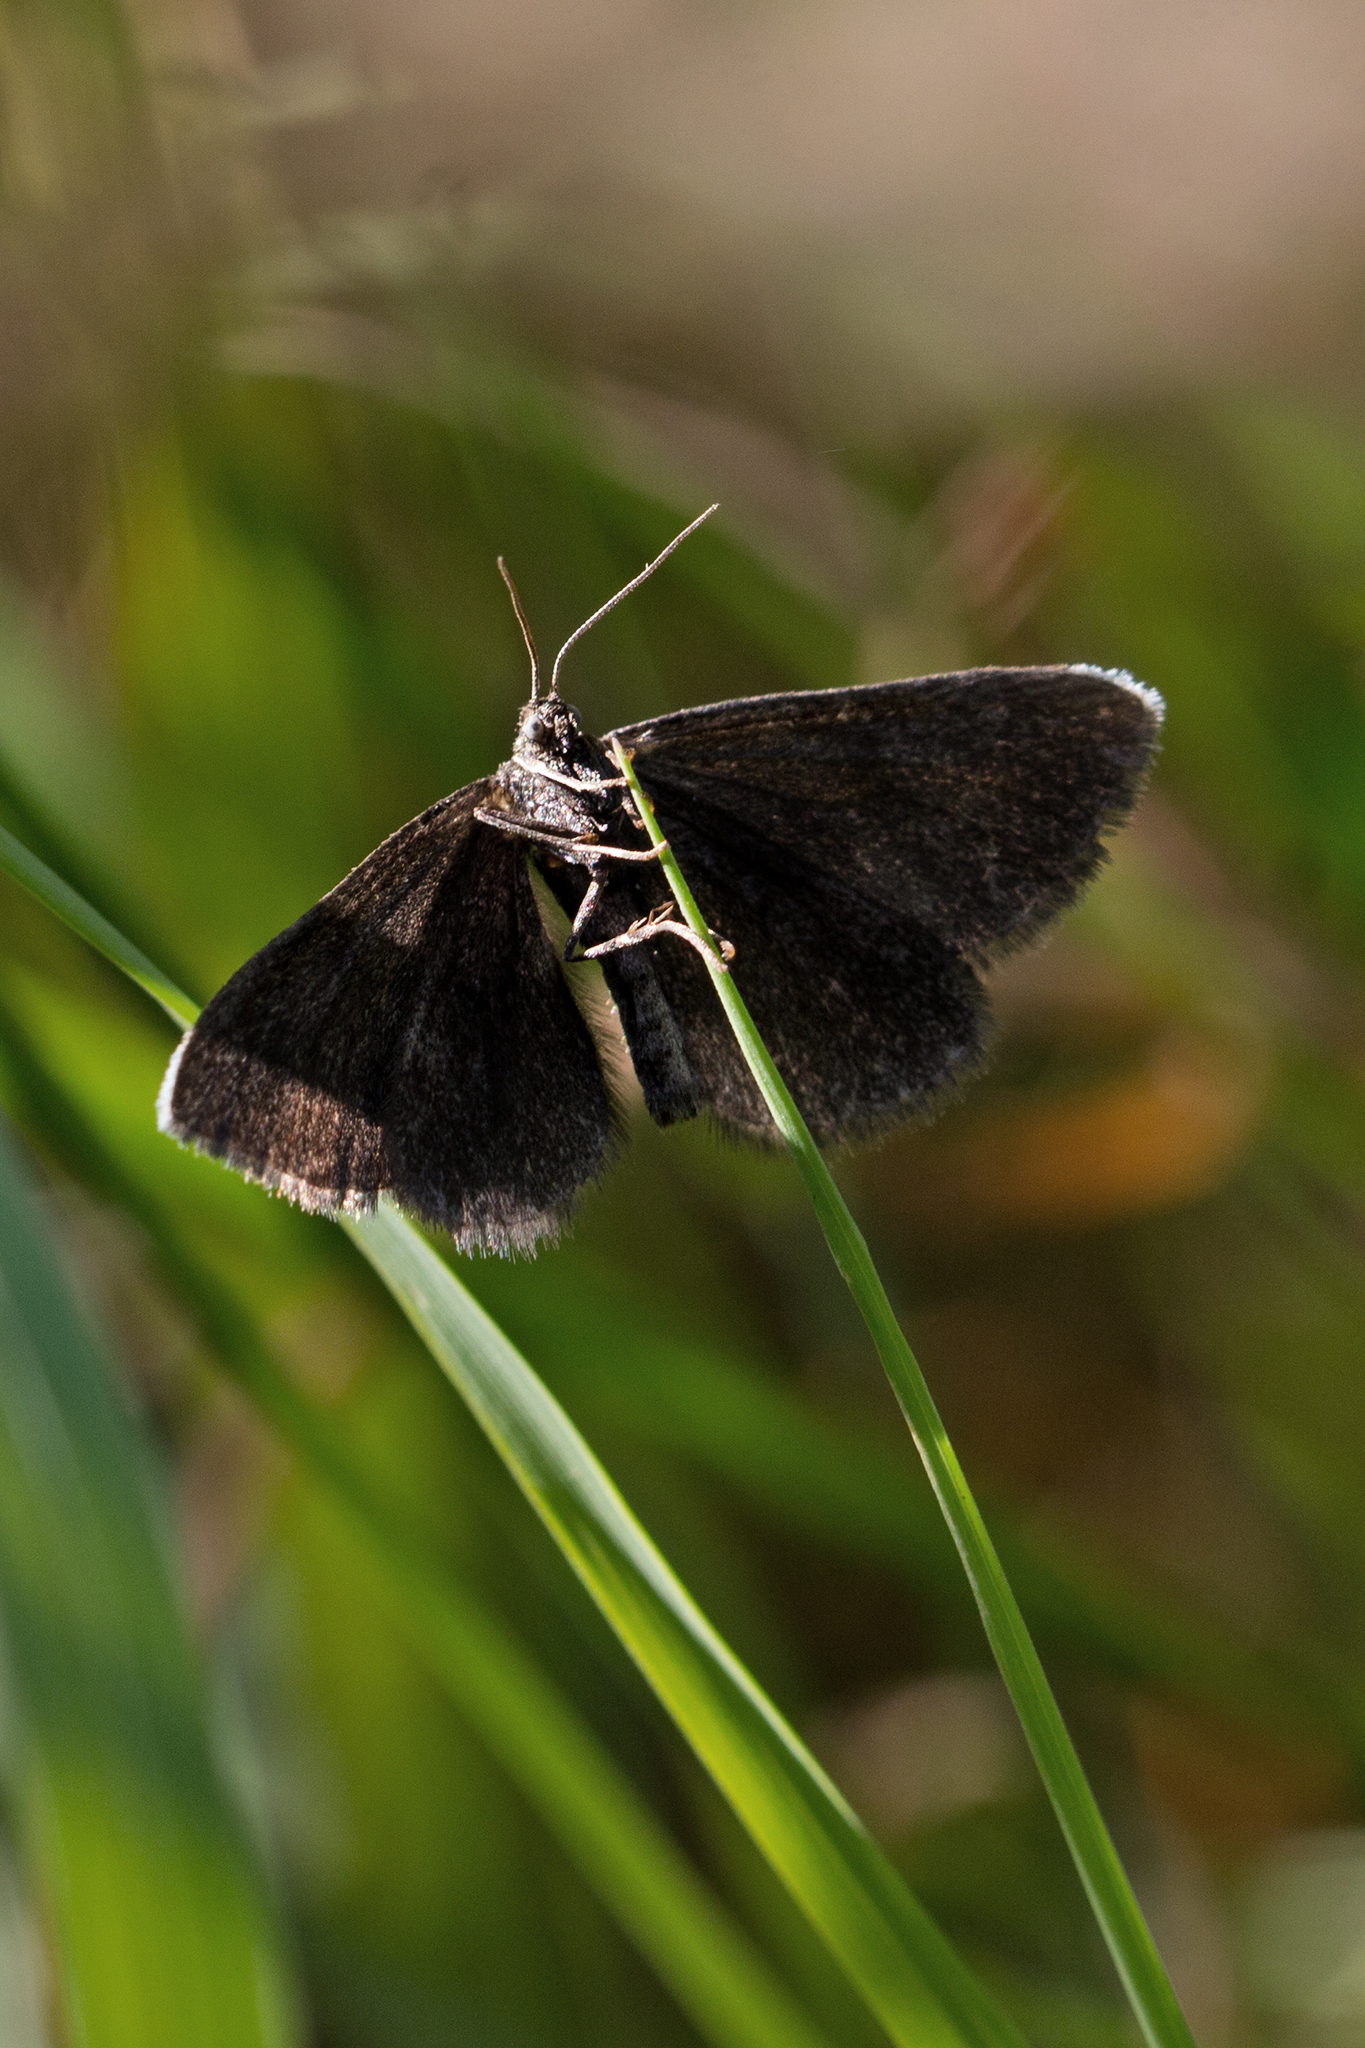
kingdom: Animalia
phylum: Arthropoda
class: Insecta
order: Lepidoptera
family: Geometridae
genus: Odezia
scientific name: Odezia atrata
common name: Chimney sweeper
